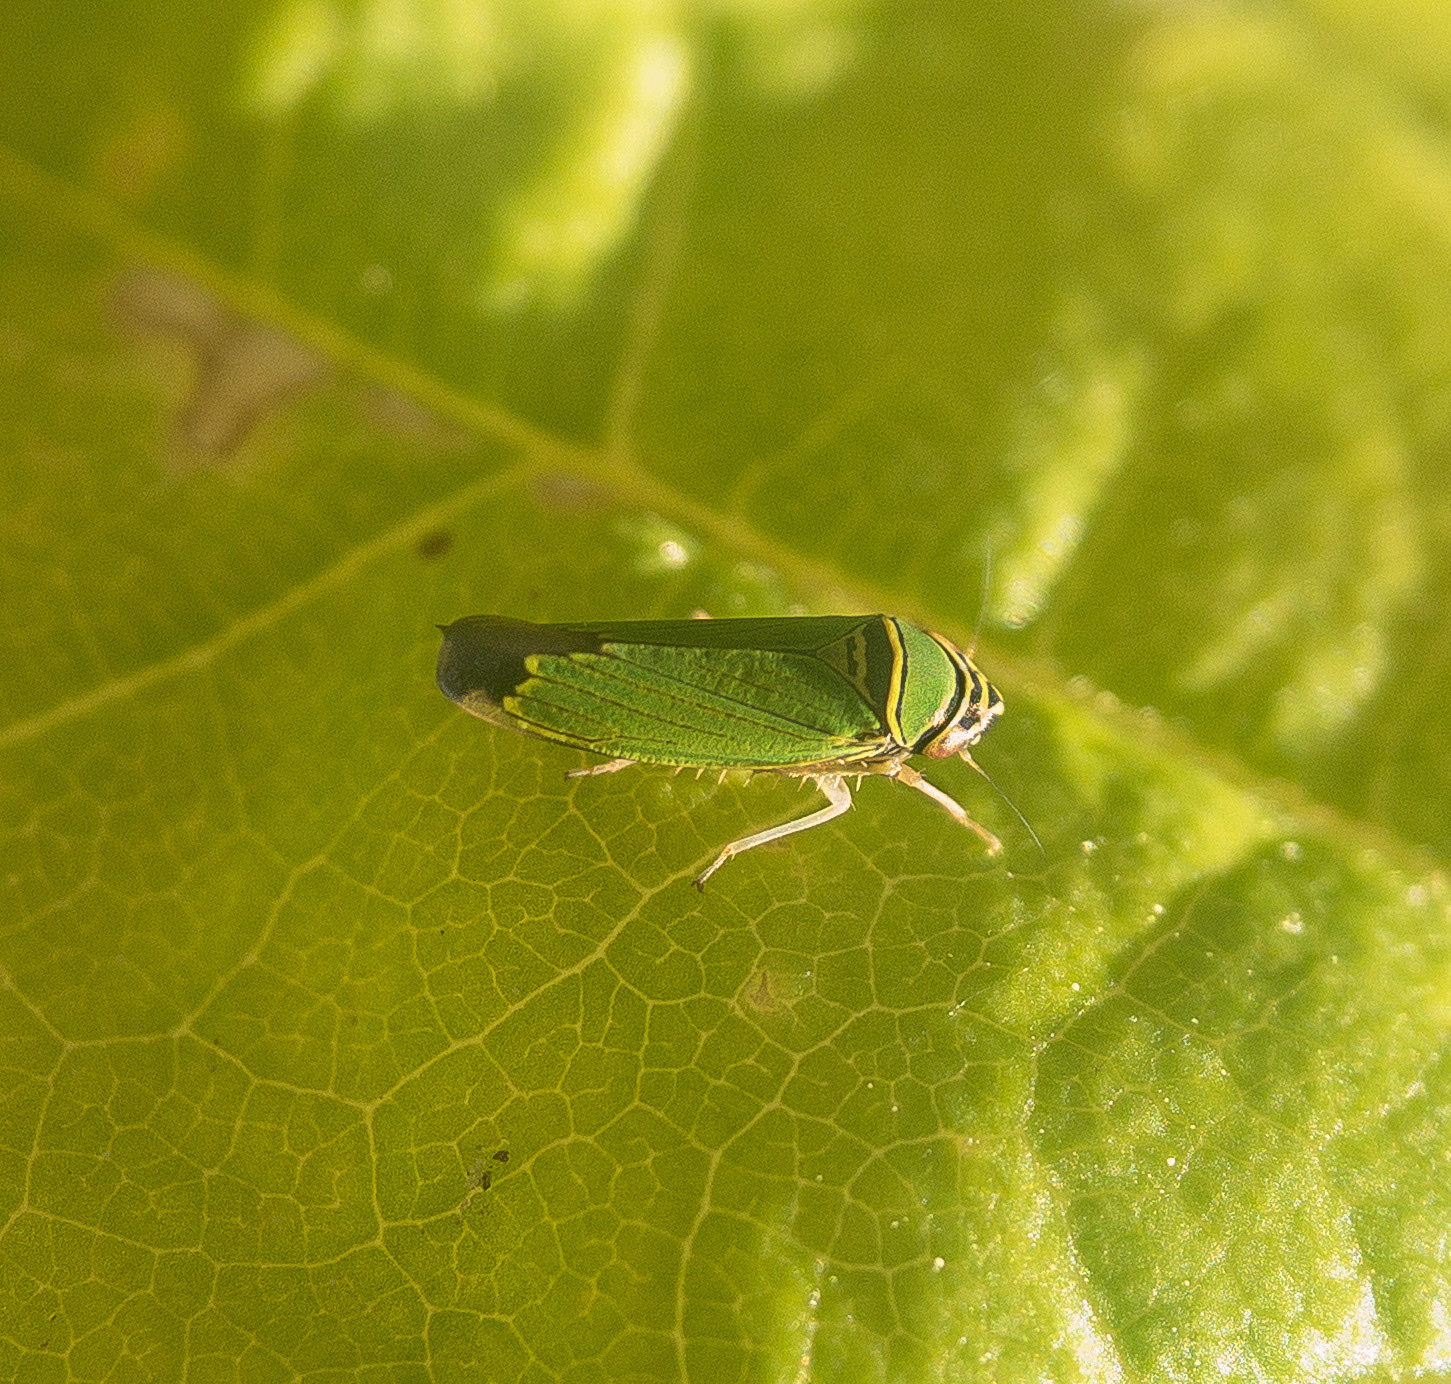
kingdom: Animalia
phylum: Arthropoda
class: Insecta
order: Hemiptera
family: Cicadellidae
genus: Tylozygus
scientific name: Tylozygus geometricus
